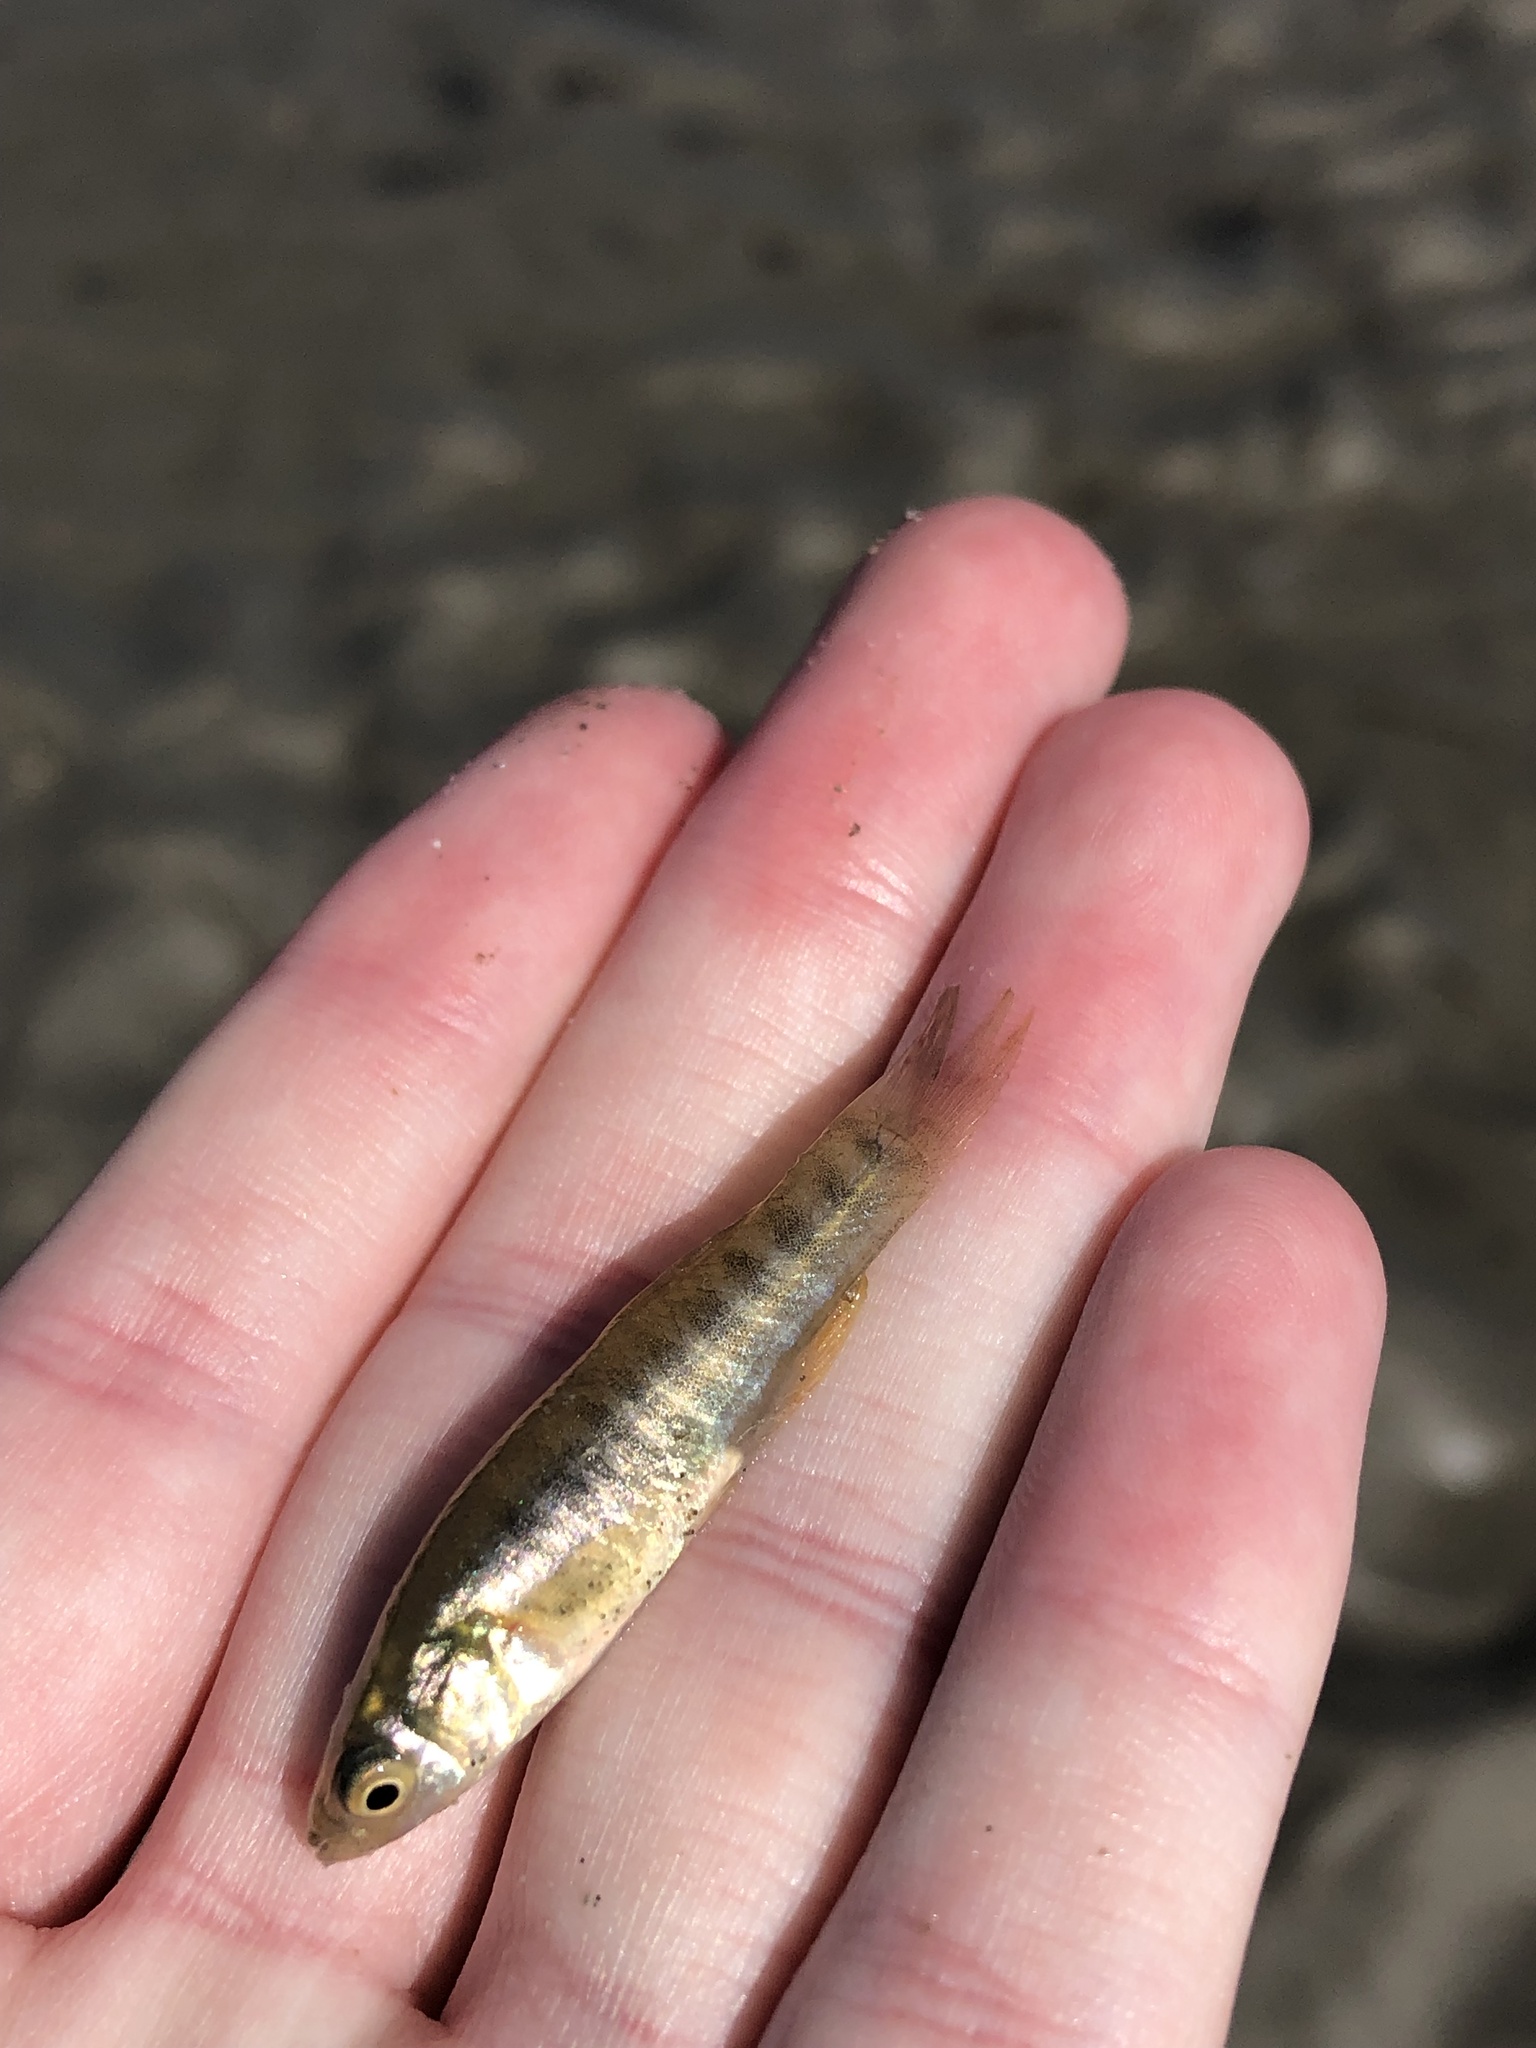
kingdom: Animalia
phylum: Chordata
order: Cyprinodontiformes
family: Fundulidae
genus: Fundulus
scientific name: Fundulus heteroclitus
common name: Mummichog
